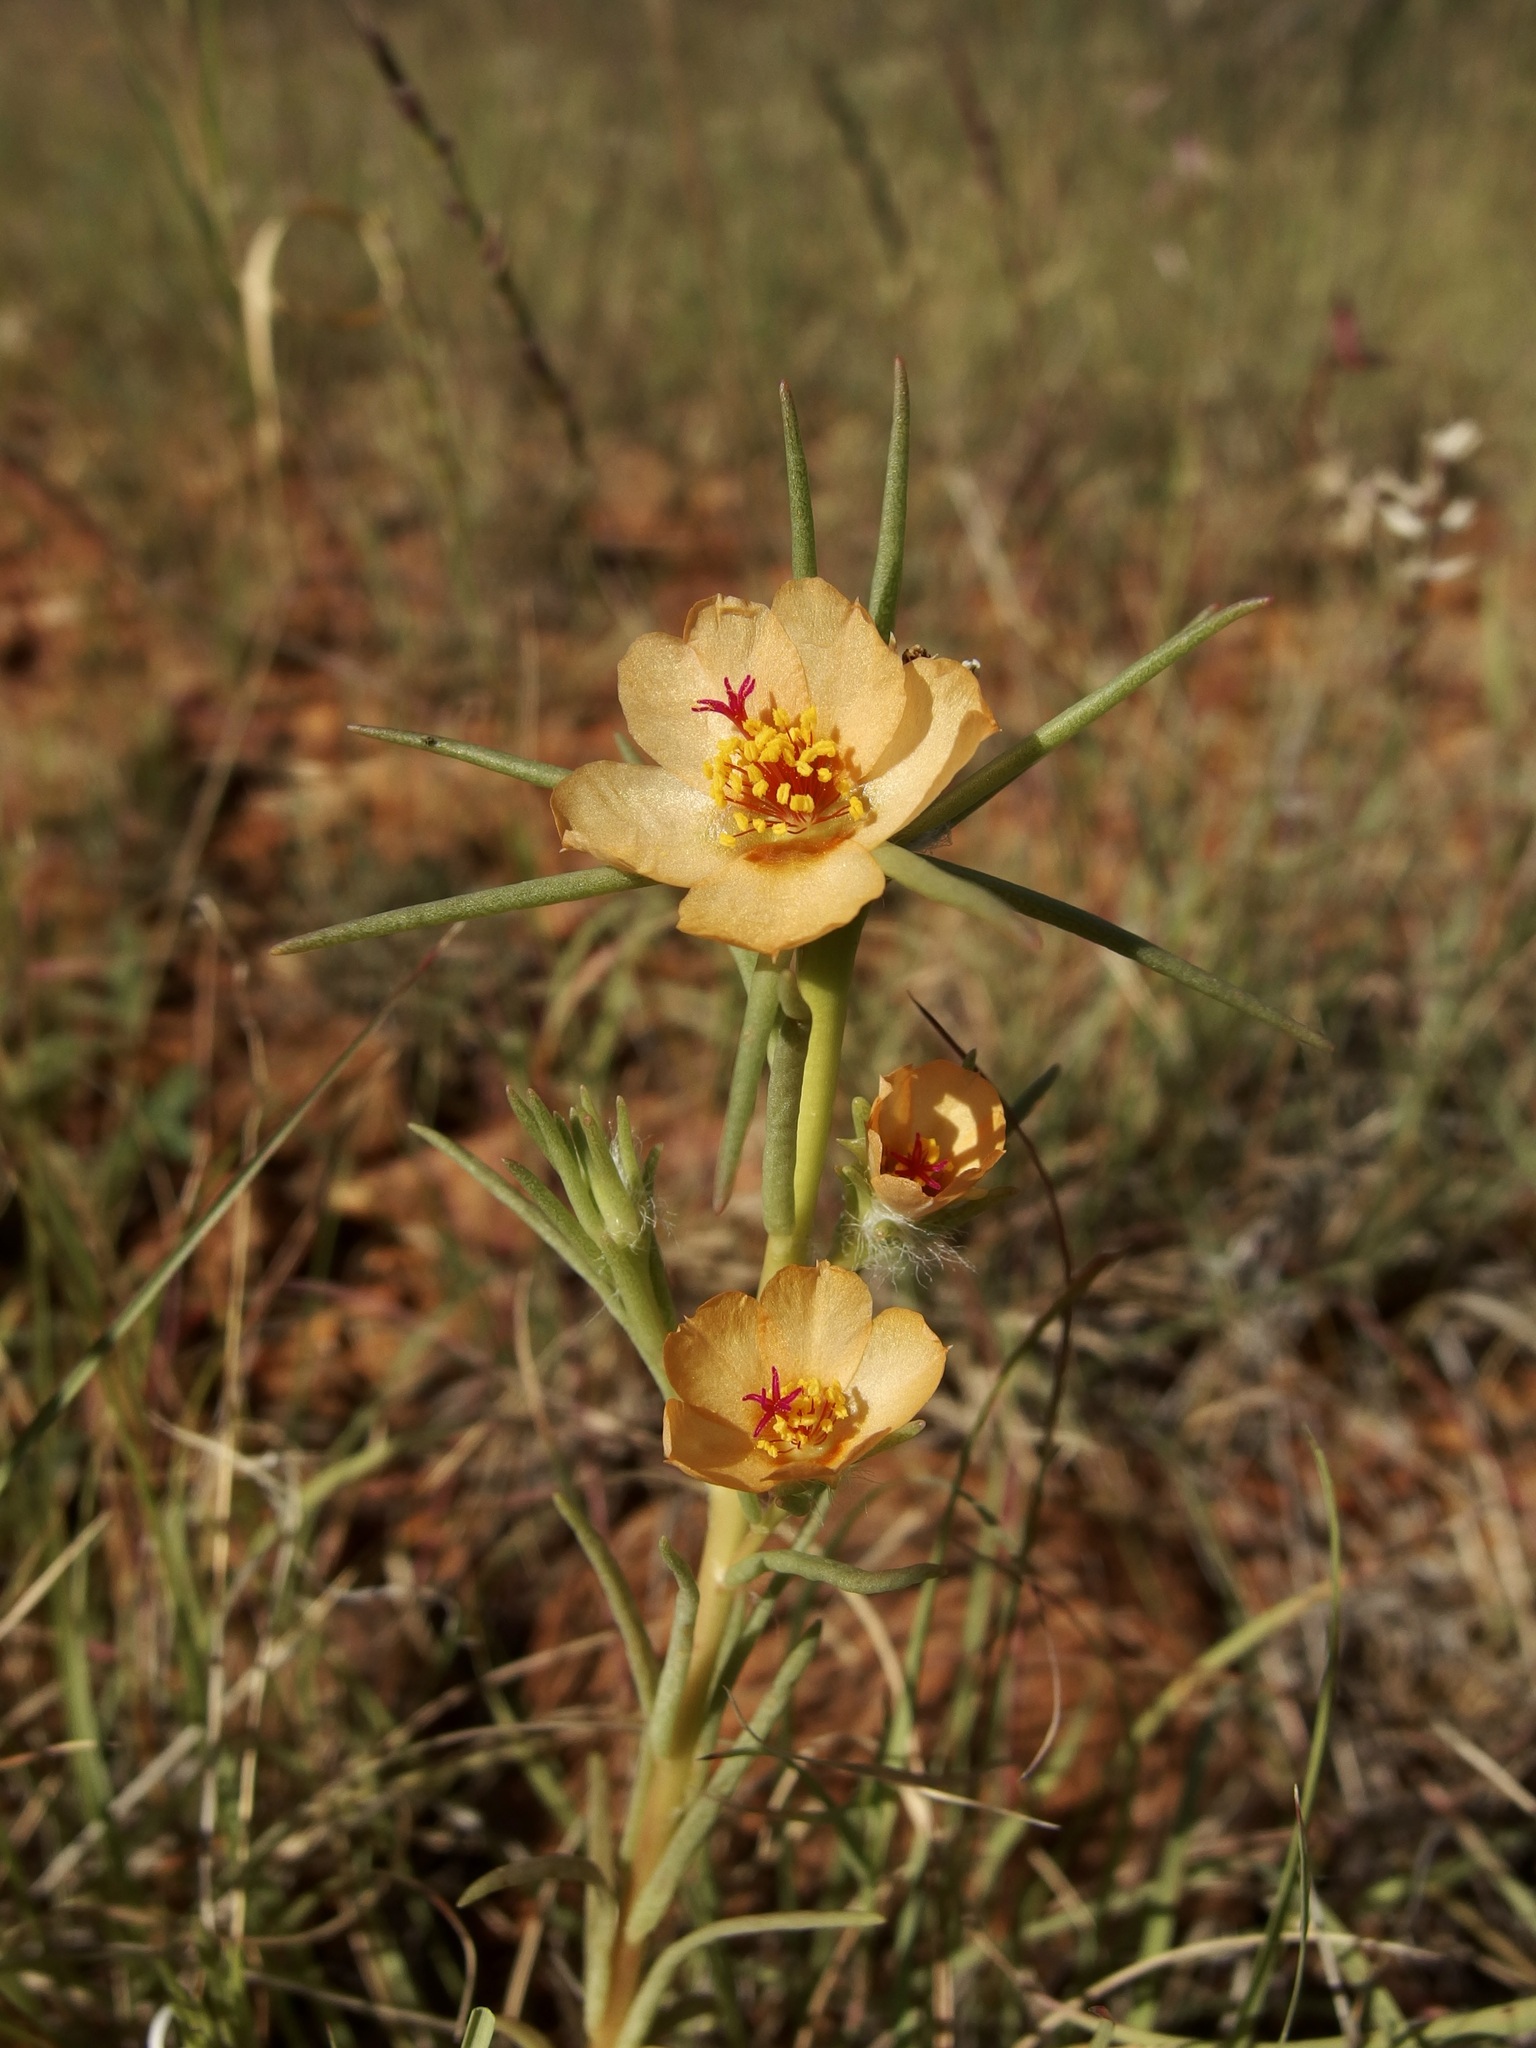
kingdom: Plantae
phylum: Tracheophyta
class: Magnoliopsida
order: Caryophyllales
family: Portulacaceae
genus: Portulaca
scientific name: Portulaca suffrutescens
